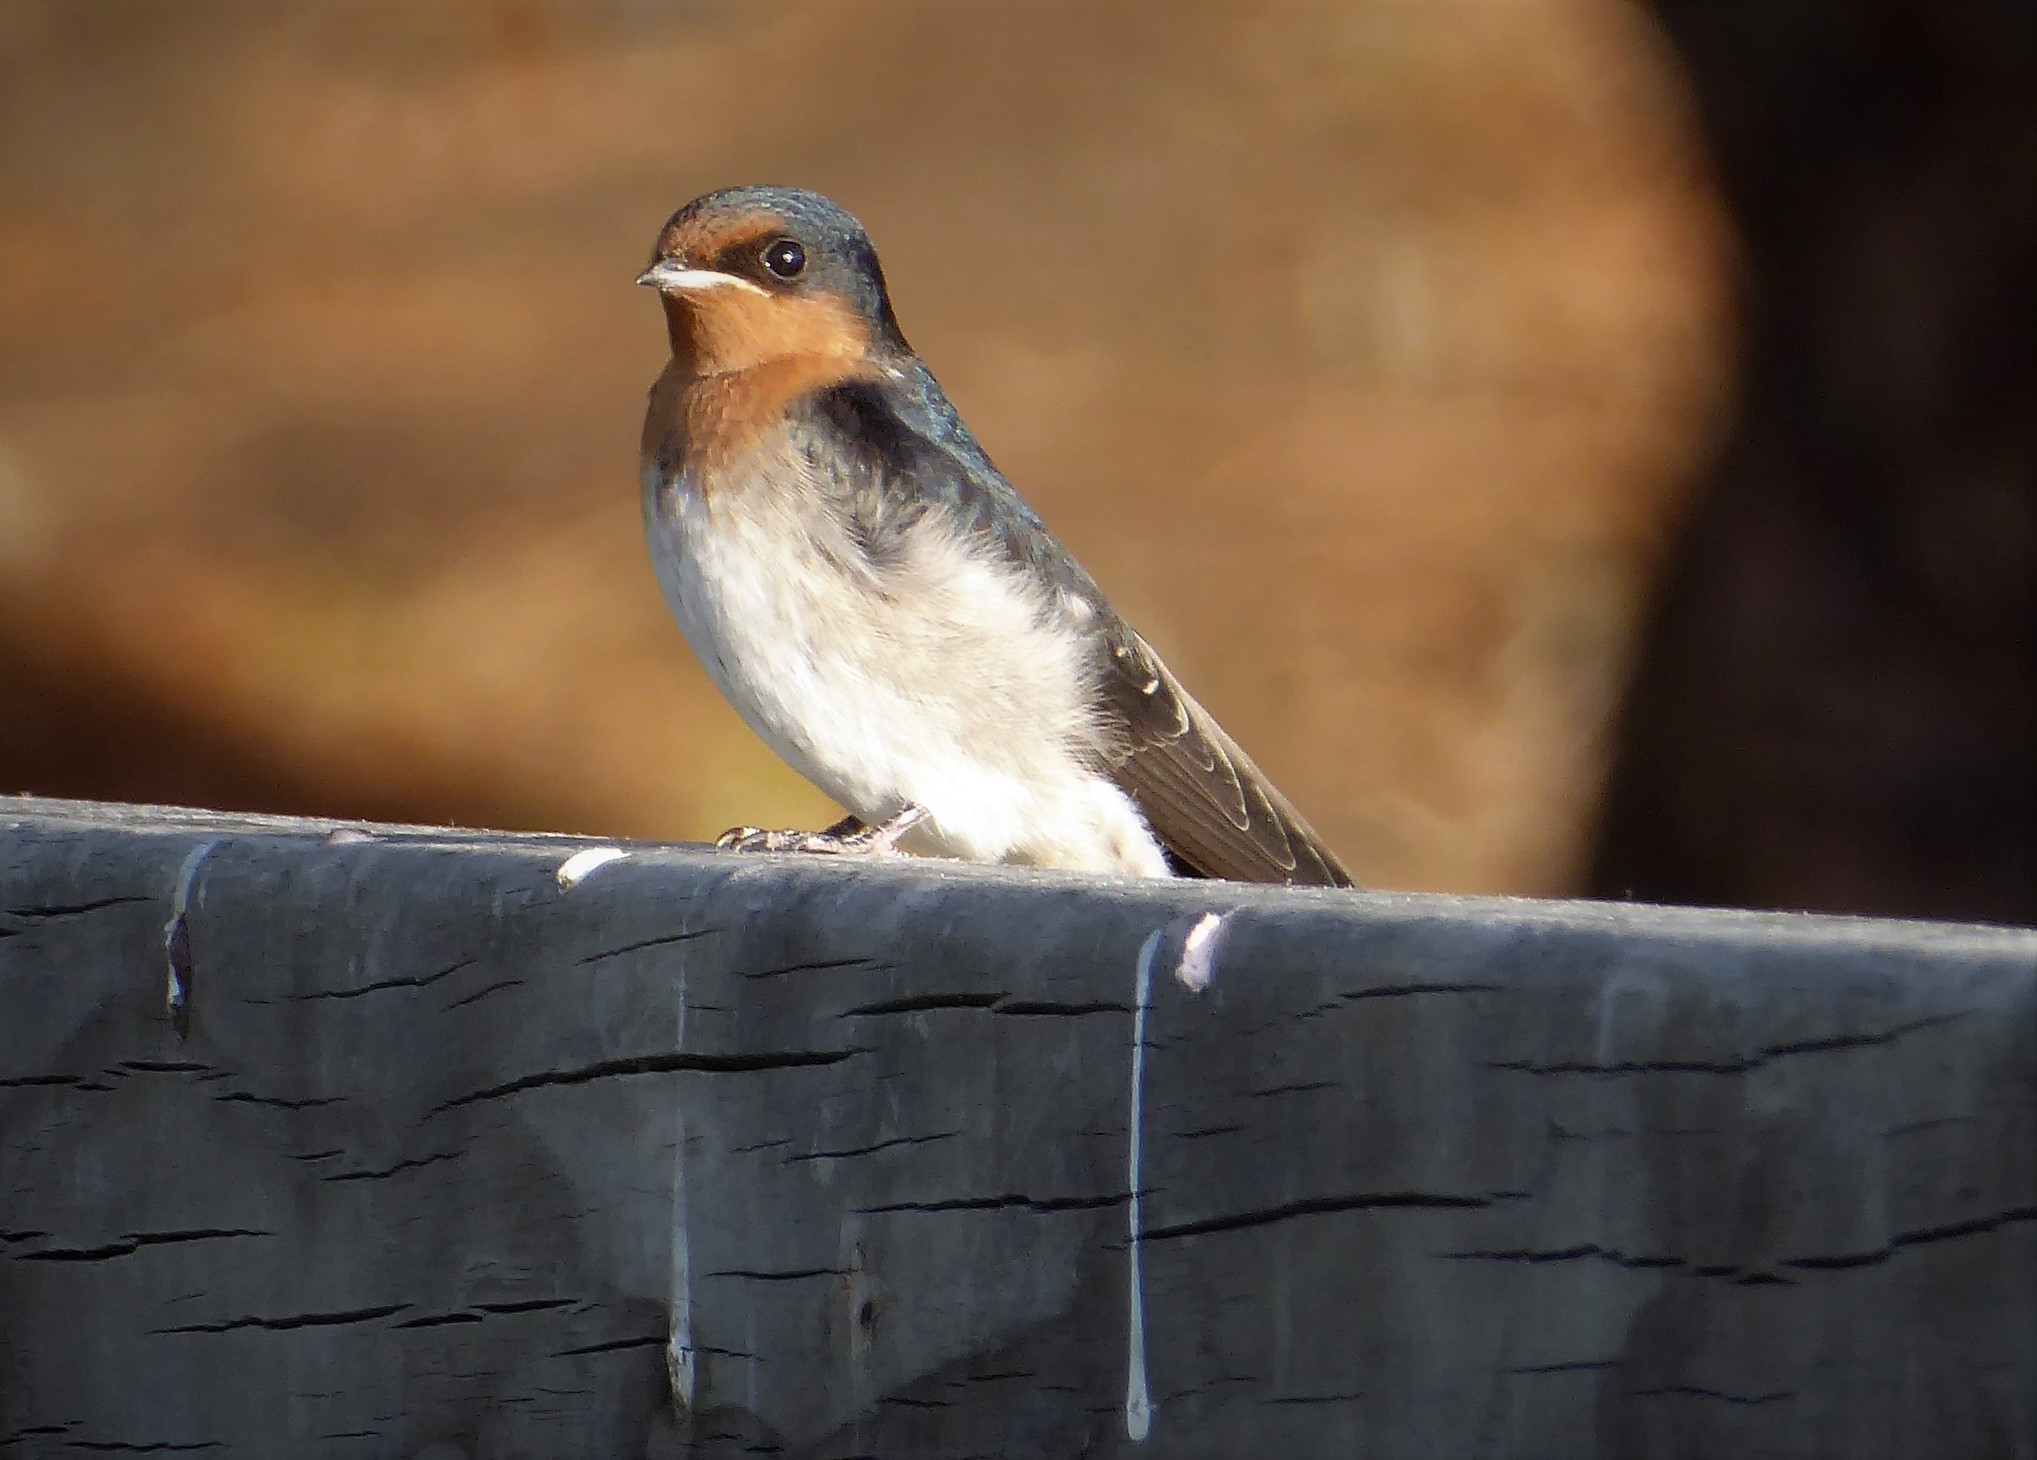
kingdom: Animalia
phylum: Chordata
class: Aves
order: Passeriformes
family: Hirundinidae
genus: Hirundo
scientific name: Hirundo neoxena
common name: Welcome swallow
